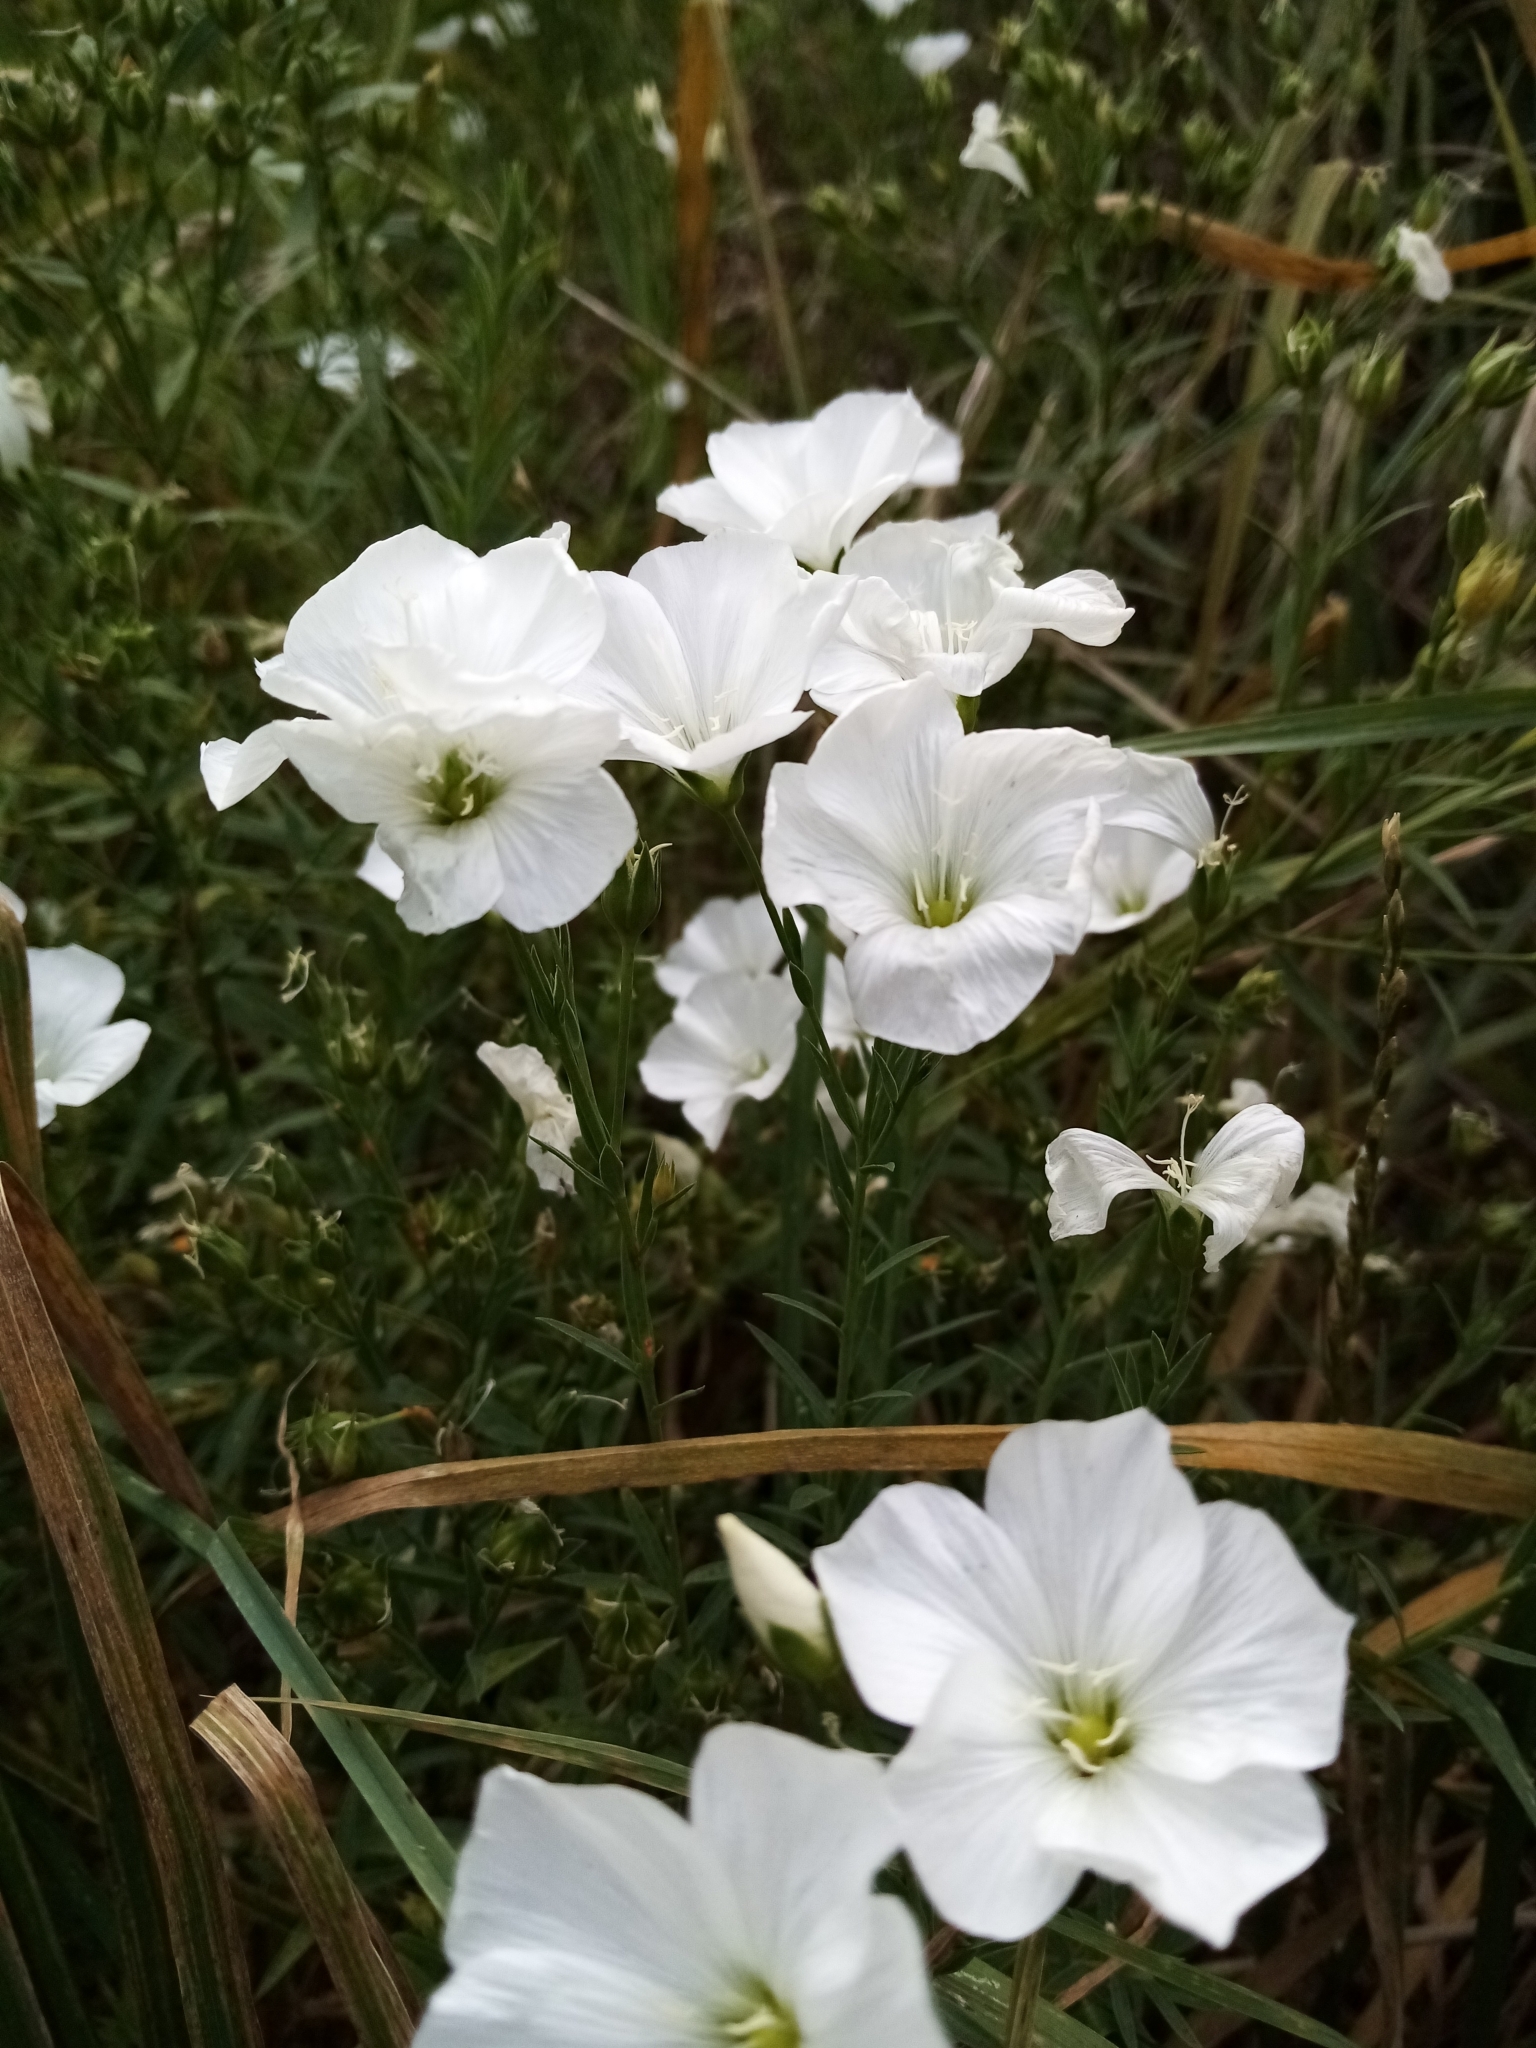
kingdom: Plantae
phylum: Tracheophyta
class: Magnoliopsida
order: Malpighiales
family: Linaceae
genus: Linum
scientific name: Linum monogynum
